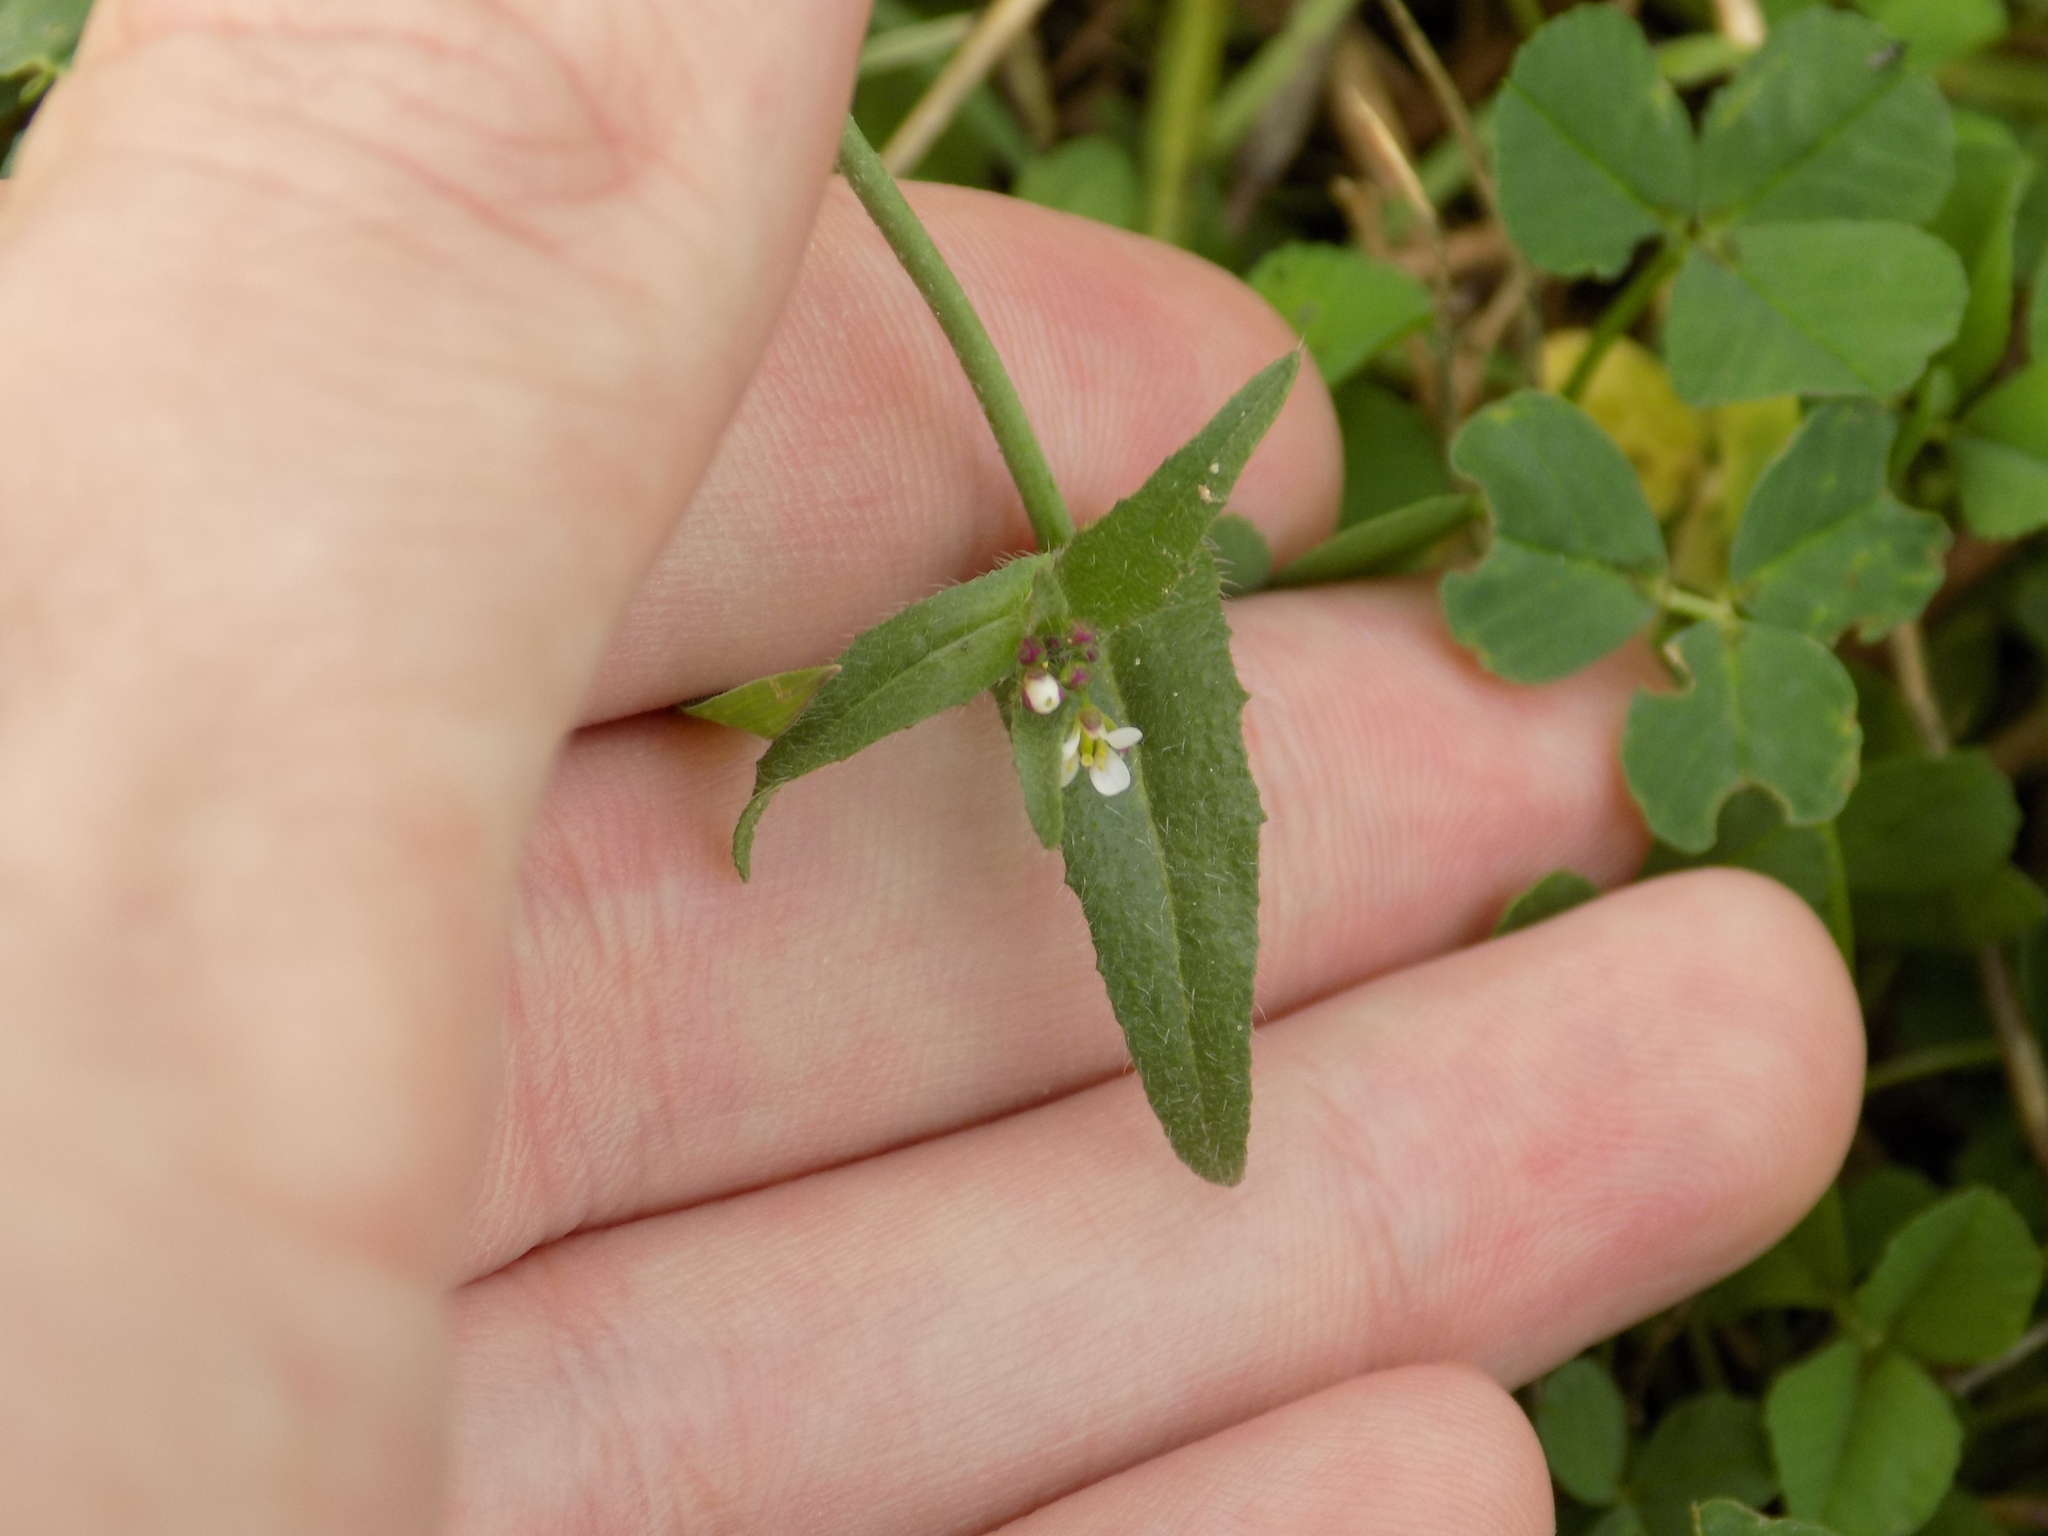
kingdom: Plantae
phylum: Tracheophyta
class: Magnoliopsida
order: Brassicales
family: Brassicaceae
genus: Capsella
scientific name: Capsella bursa-pastoris
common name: Shepherd's purse
